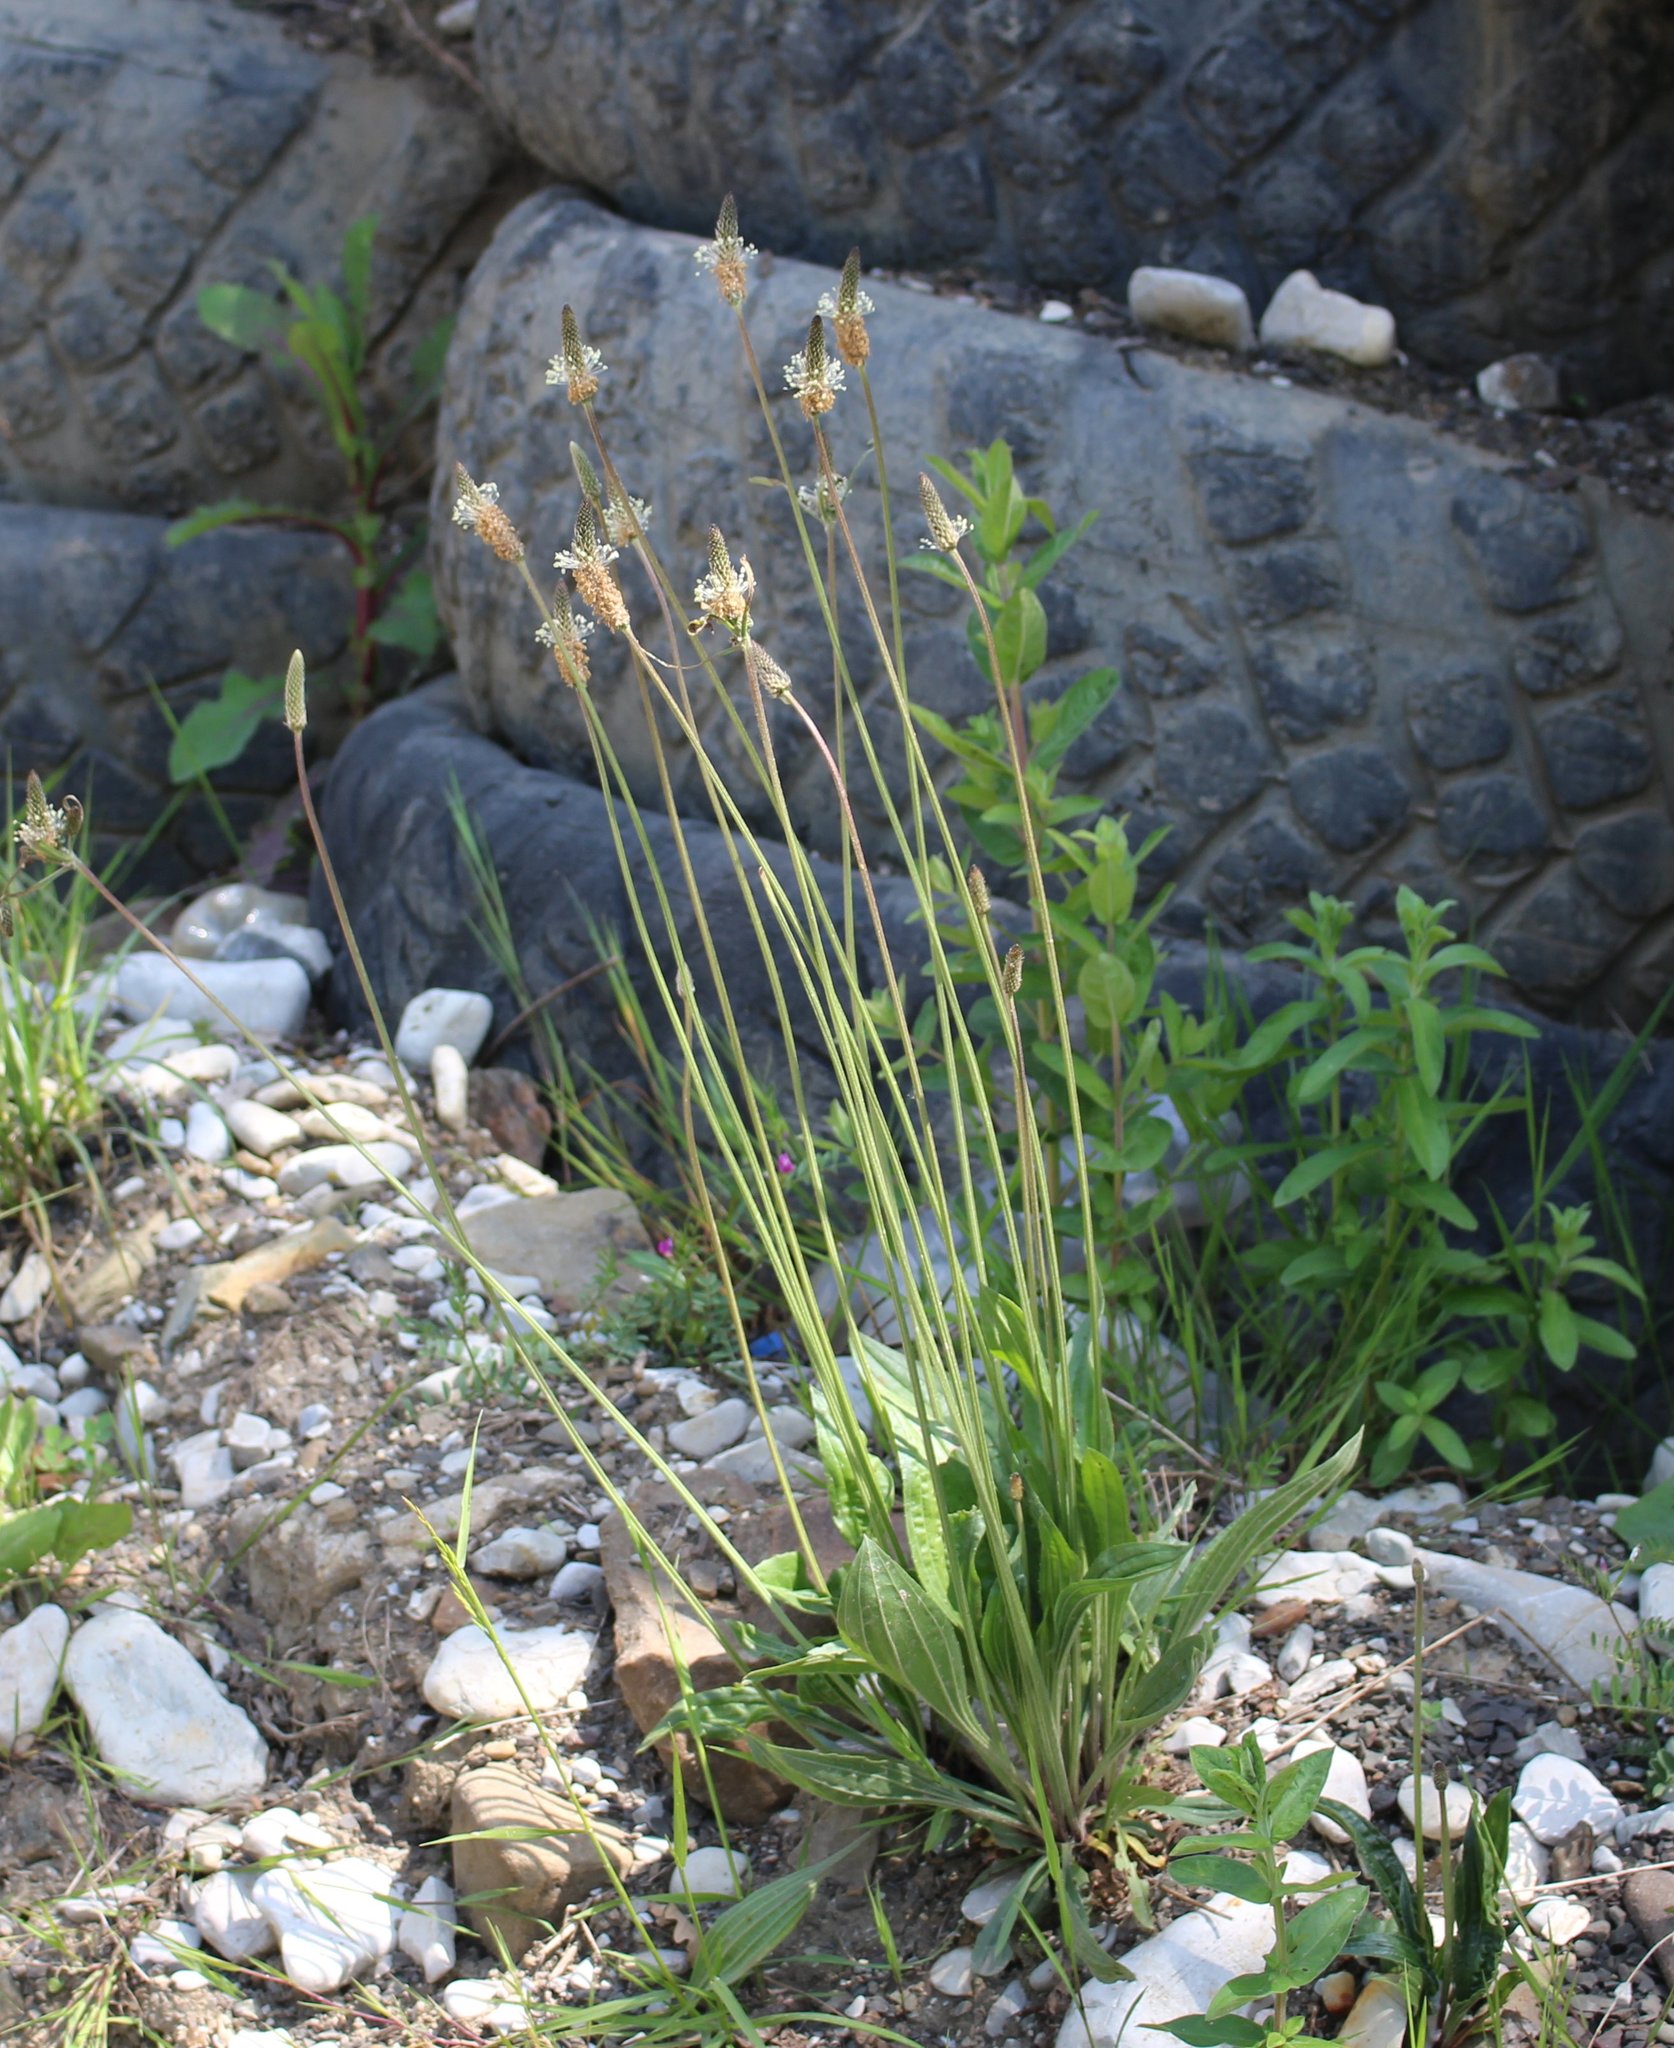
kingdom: Plantae
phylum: Tracheophyta
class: Magnoliopsida
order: Lamiales
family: Plantaginaceae
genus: Plantago
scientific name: Plantago lanceolata
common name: Ribwort plantain
